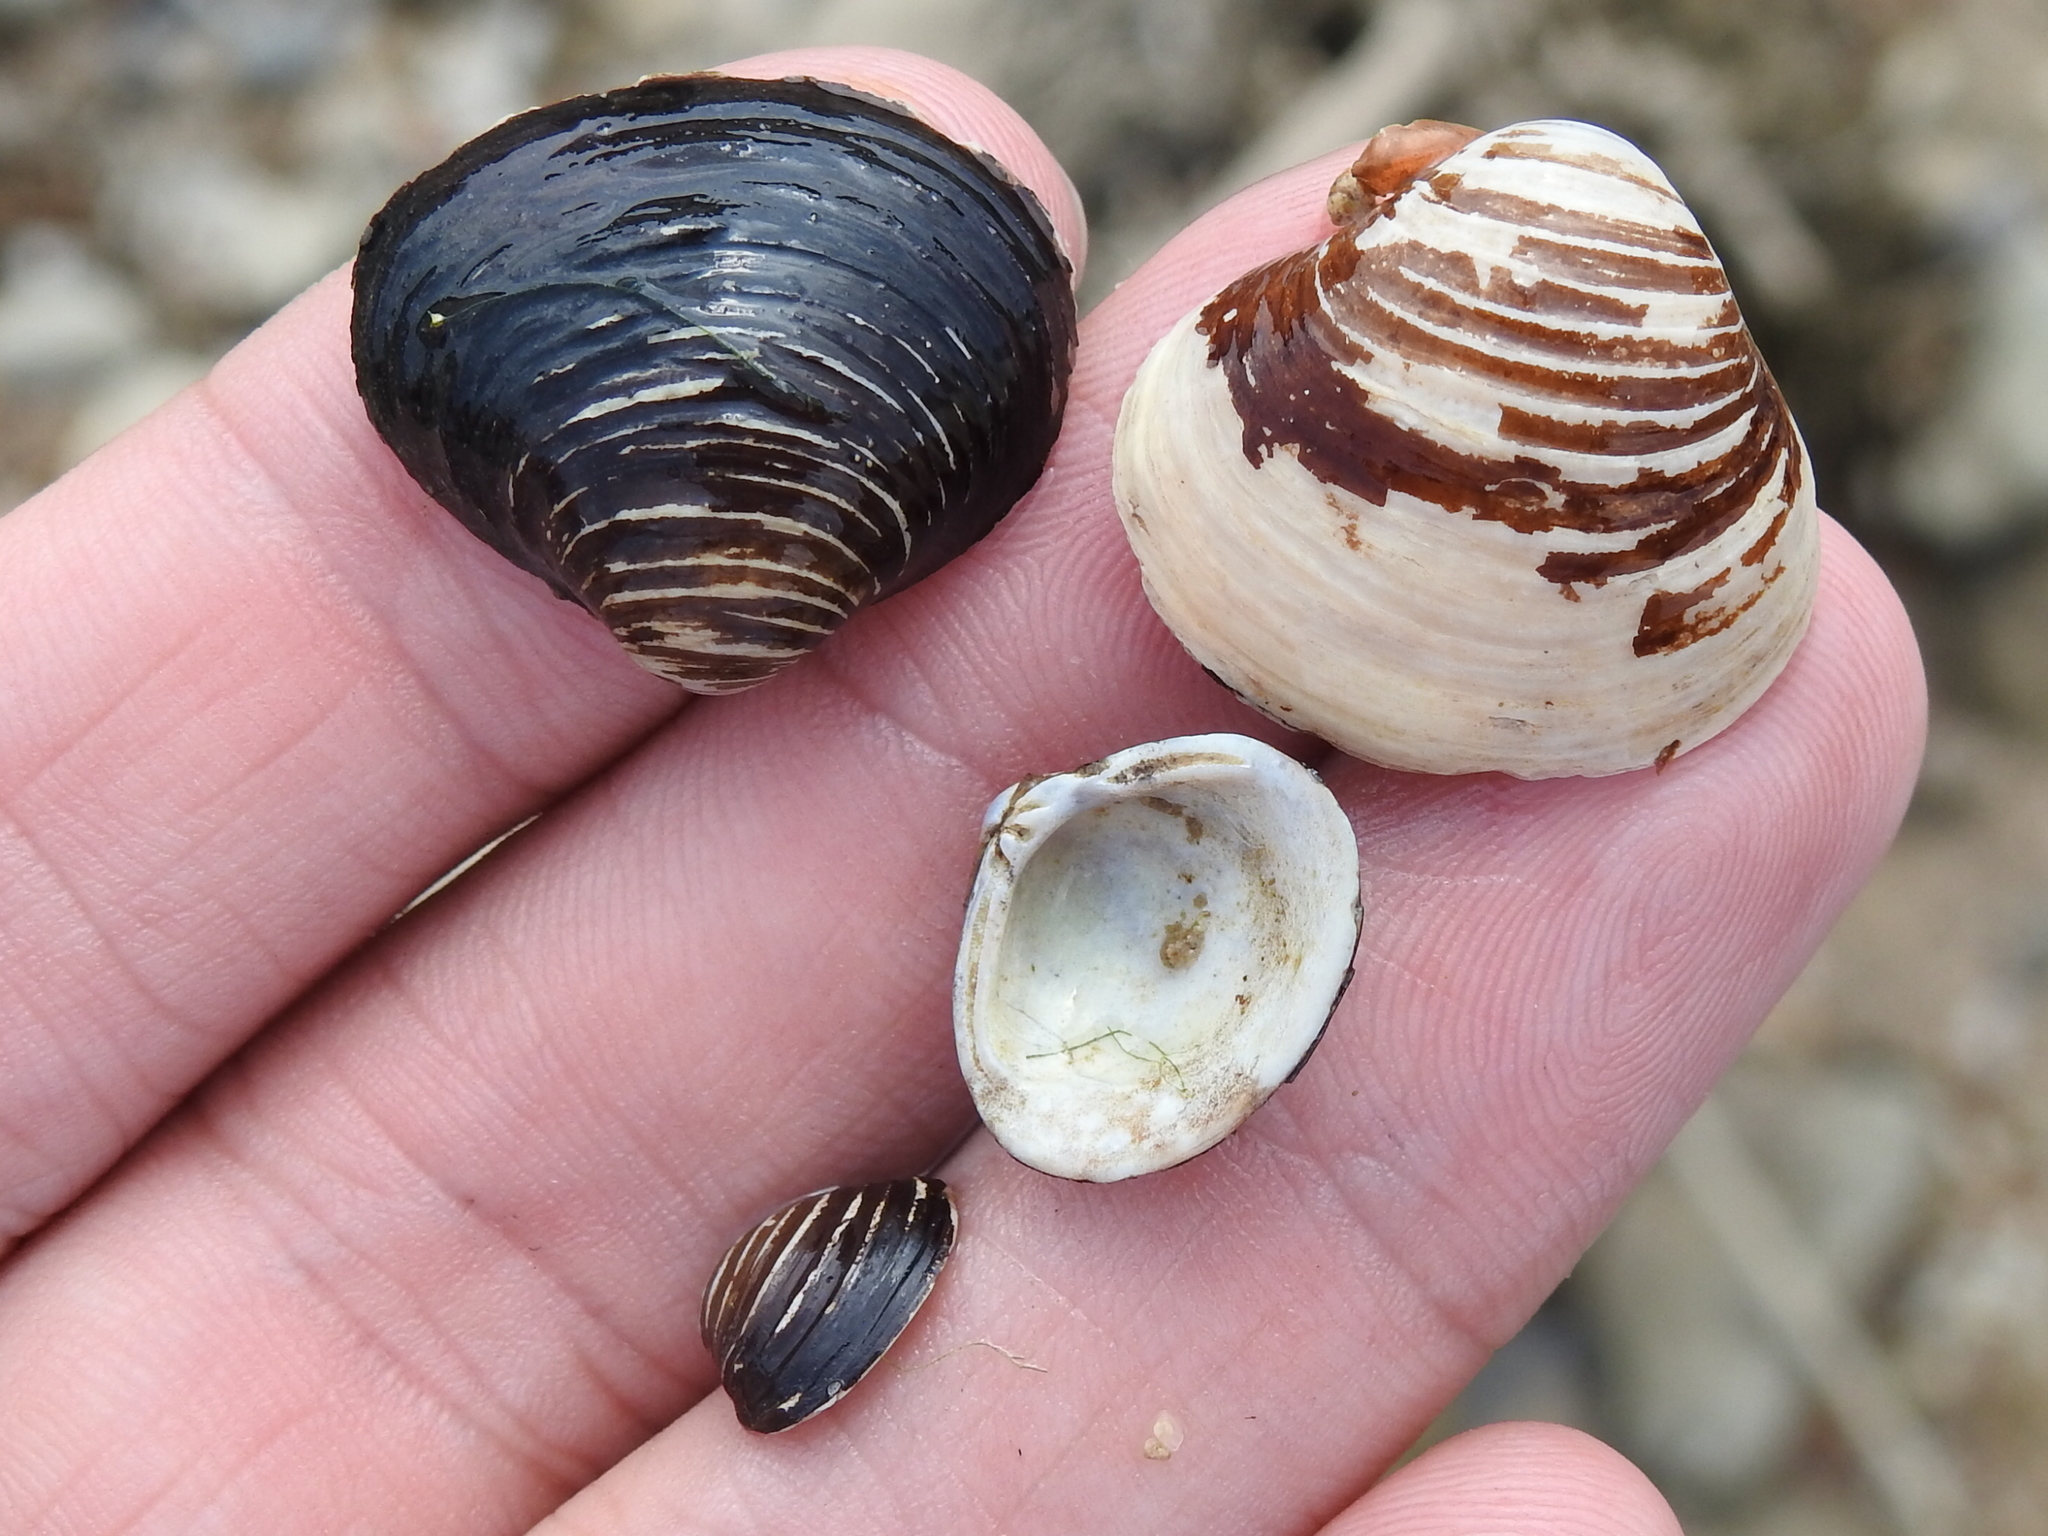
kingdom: Animalia
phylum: Mollusca
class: Bivalvia
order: Venerida
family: Cyrenidae
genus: Corbicula
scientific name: Corbicula fluminea
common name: Asian clam
